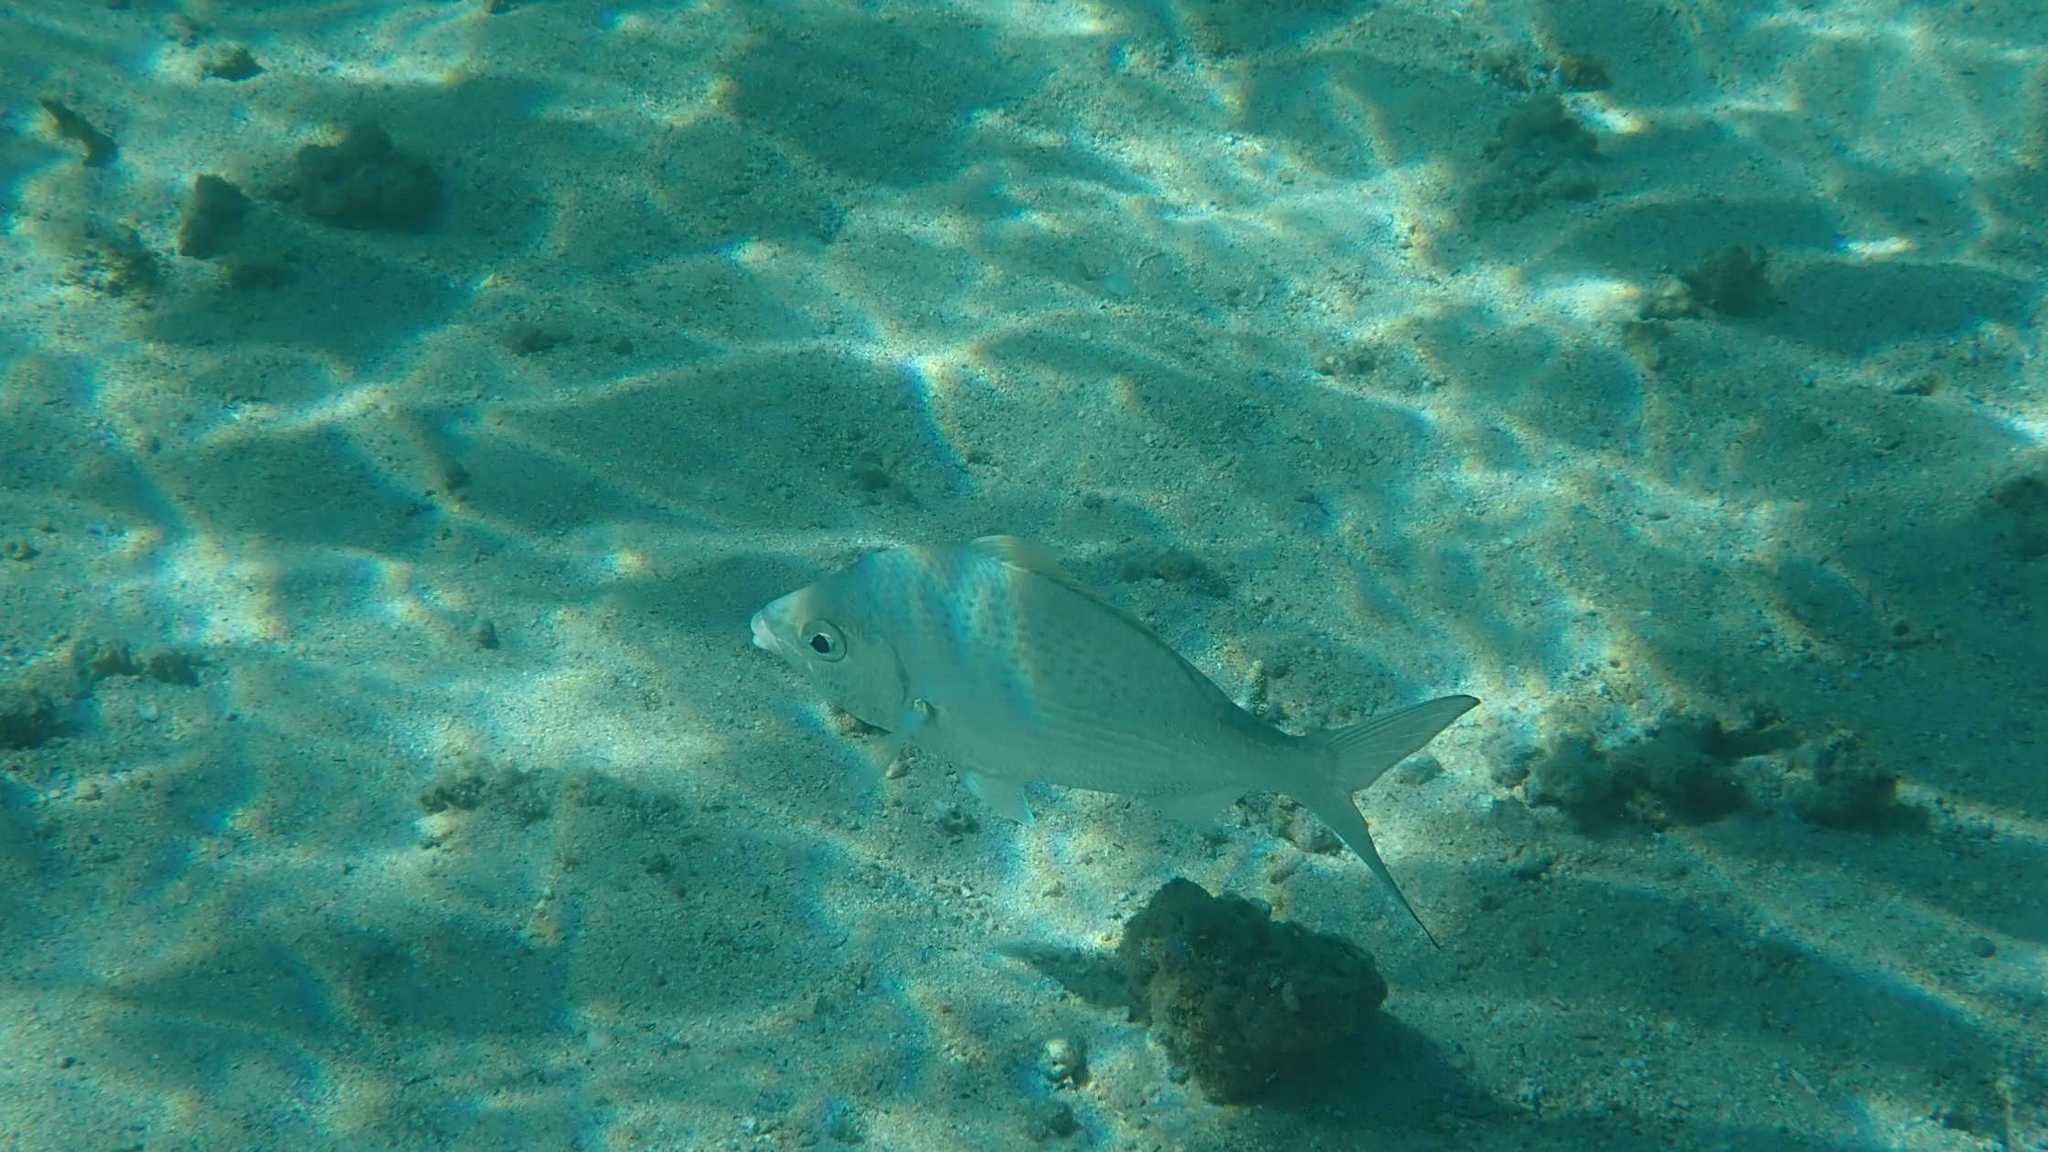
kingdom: Animalia
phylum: Chordata
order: Perciformes
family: Gerreidae
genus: Gerres
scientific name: Gerres longirostris
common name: Strongspine silver-biddy
